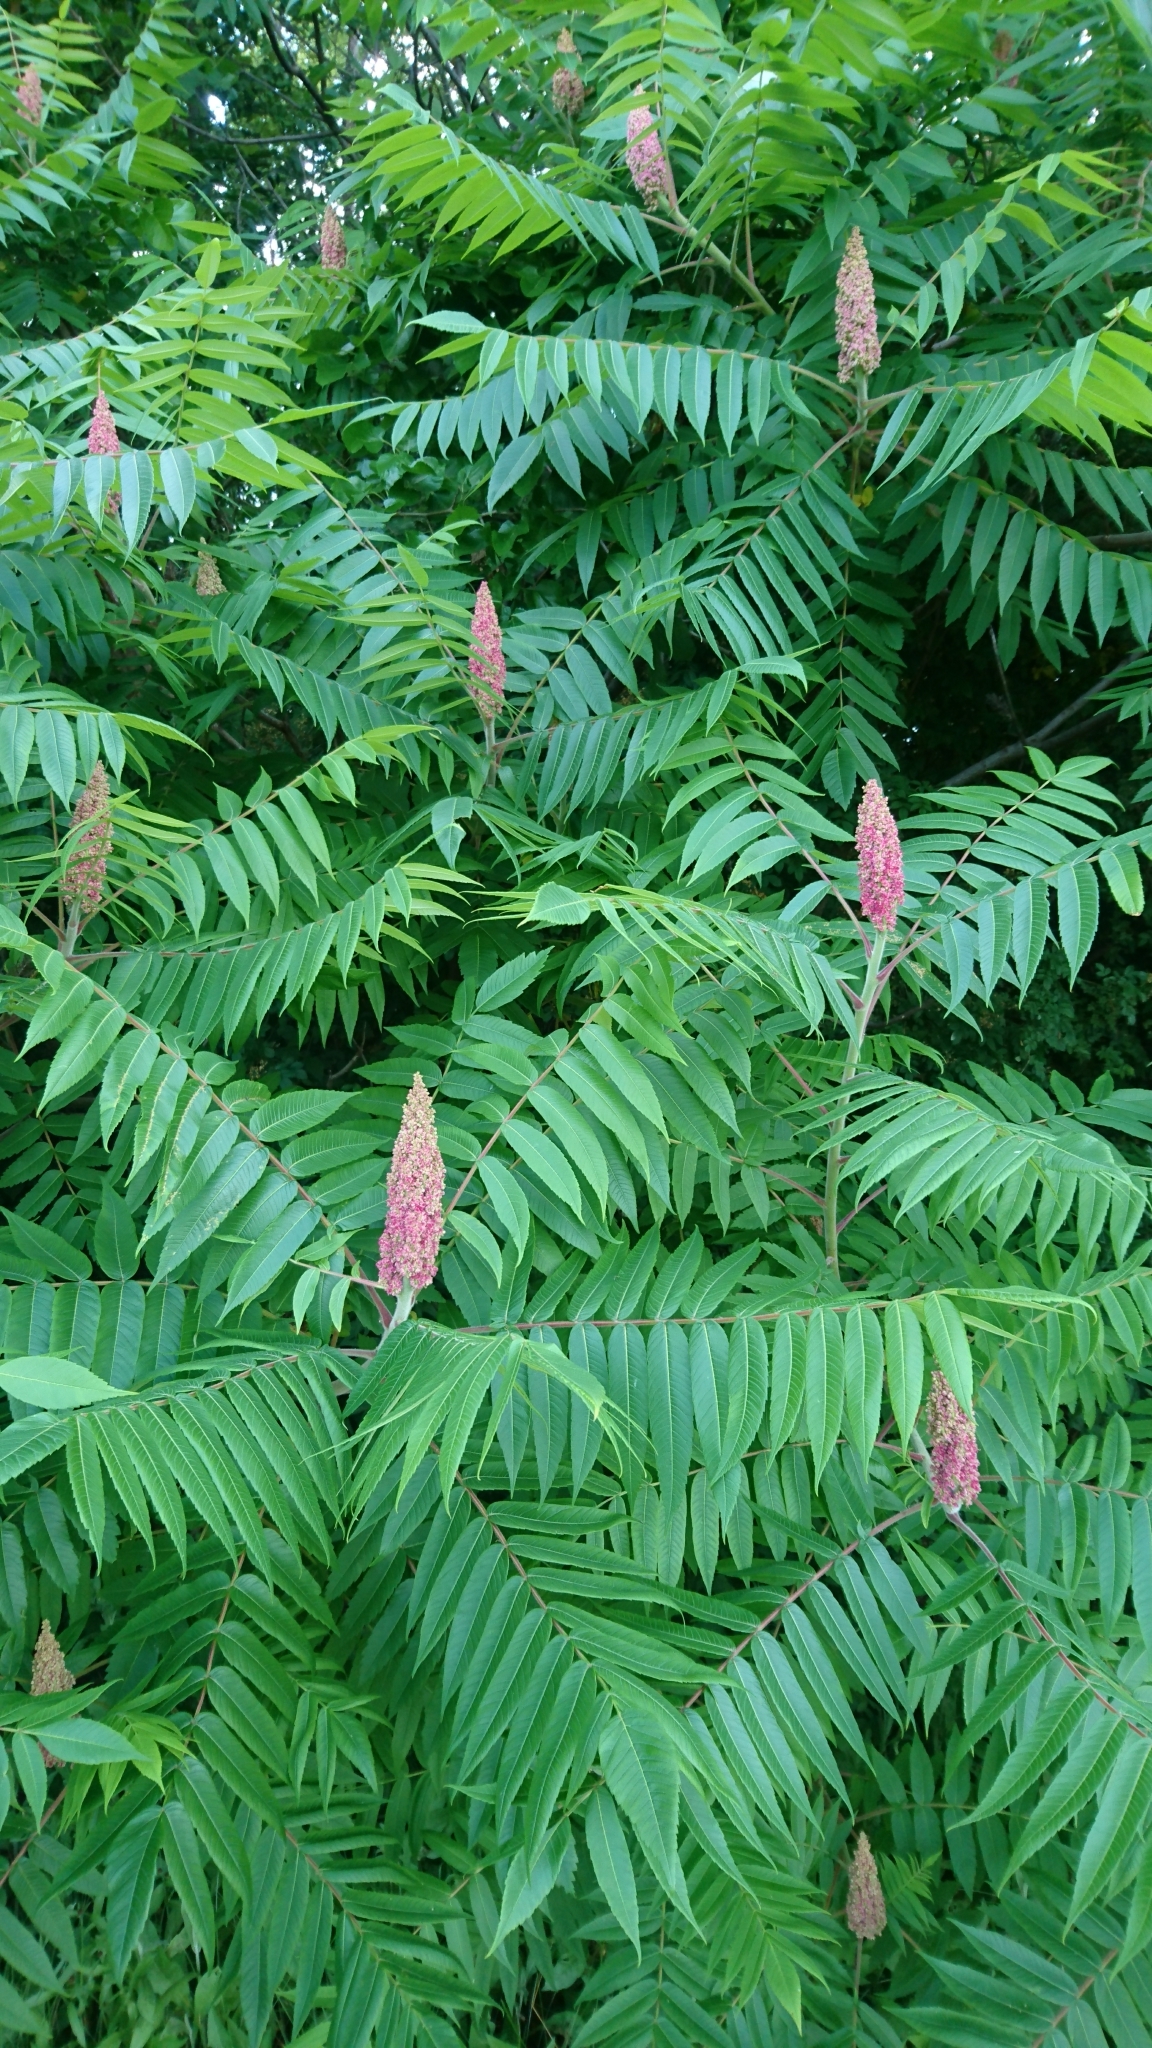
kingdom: Plantae
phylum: Tracheophyta
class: Magnoliopsida
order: Sapindales
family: Anacardiaceae
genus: Rhus
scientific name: Rhus typhina
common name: Staghorn sumac
